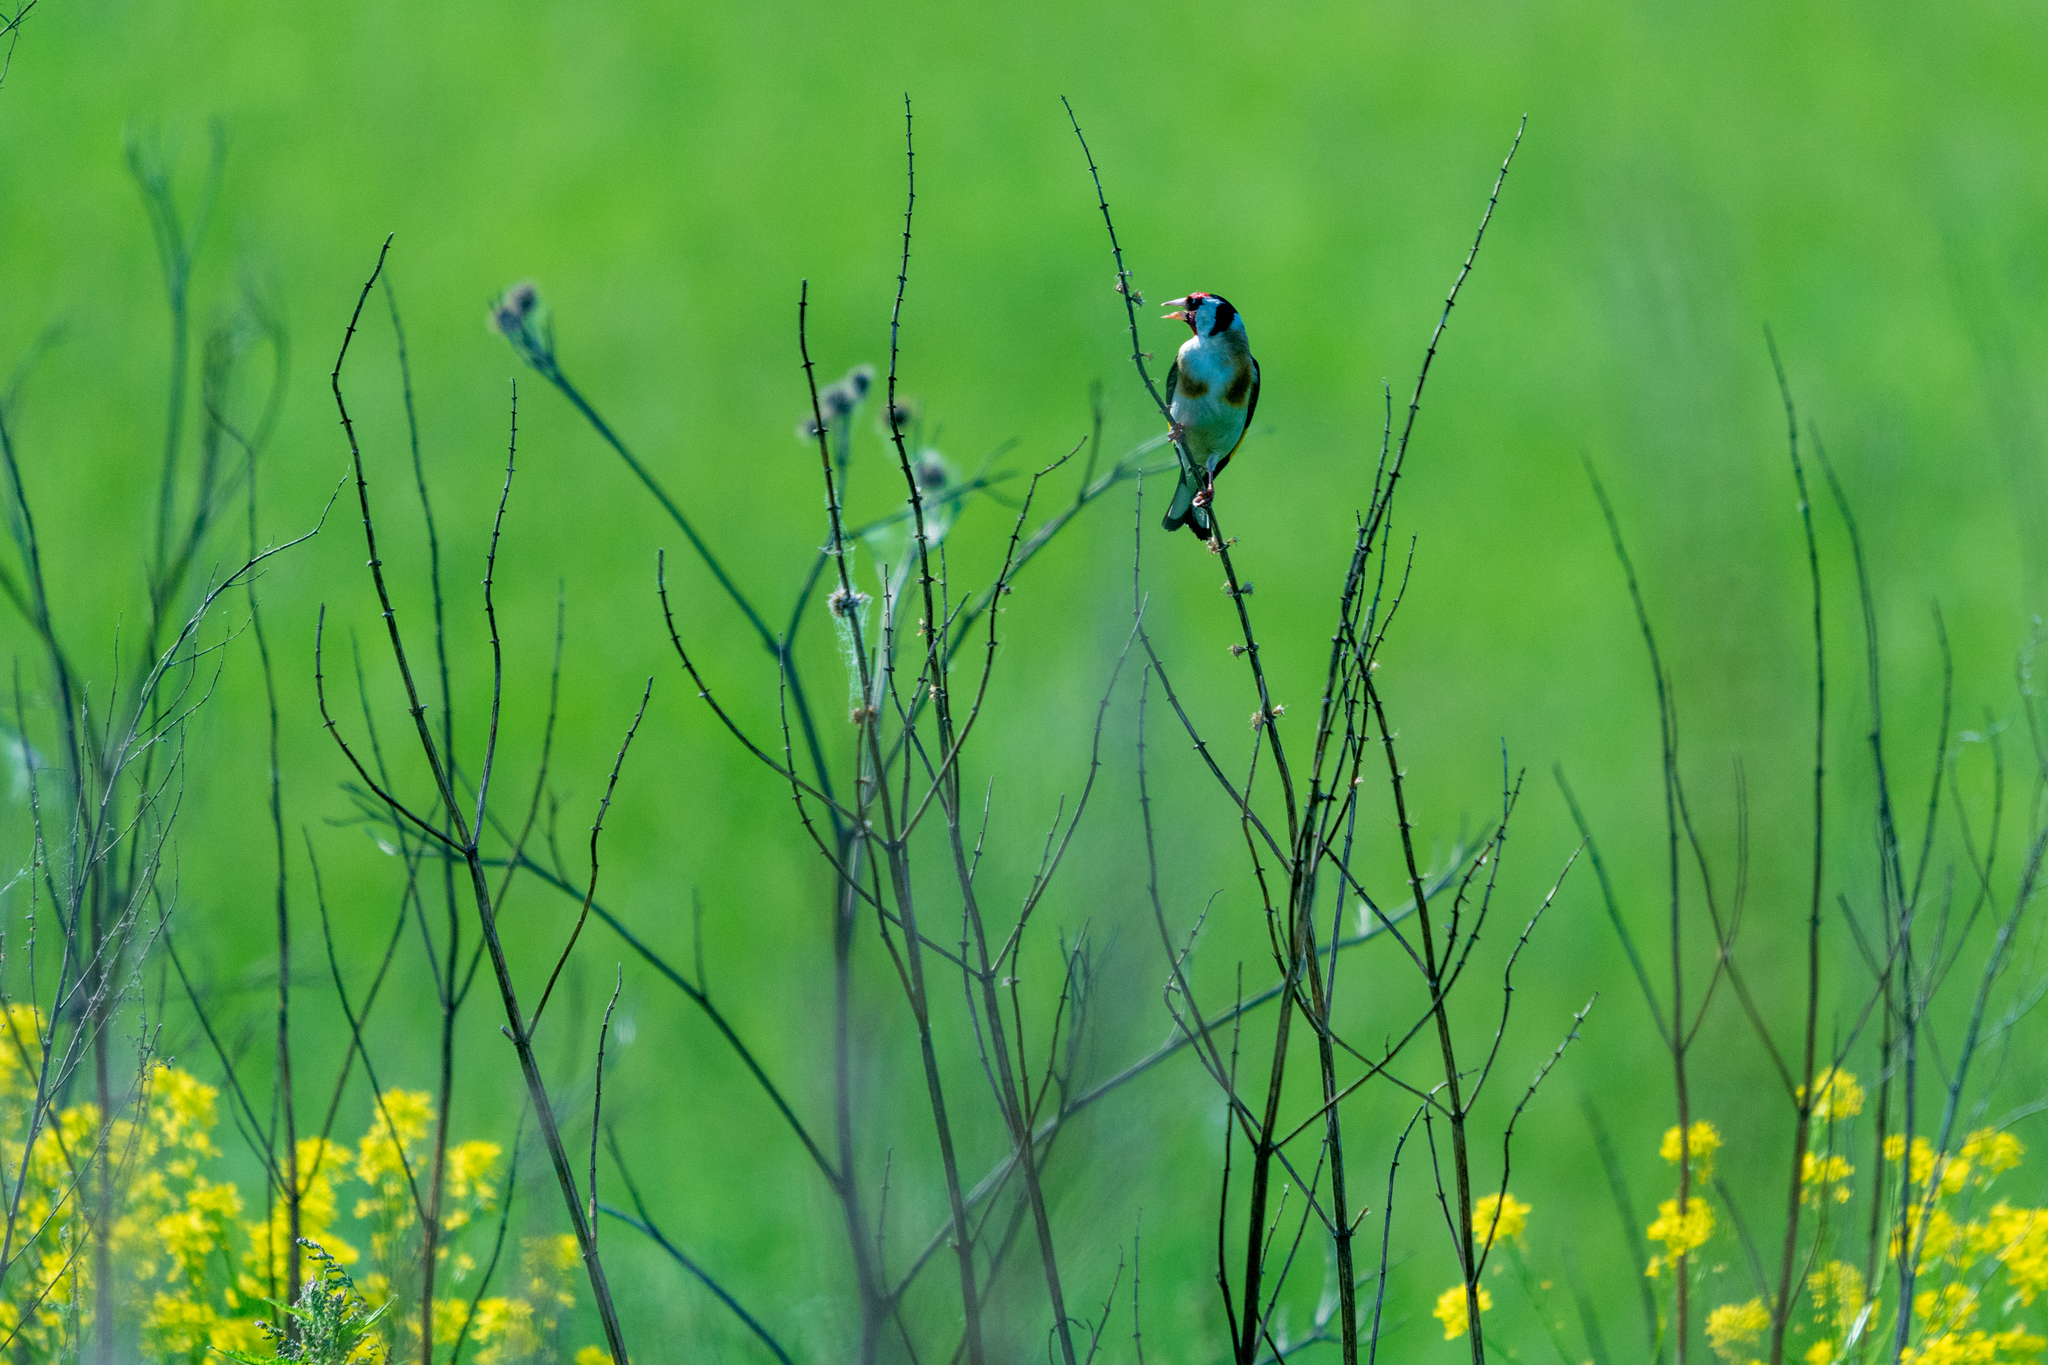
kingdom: Animalia
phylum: Chordata
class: Aves
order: Passeriformes
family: Fringillidae
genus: Carduelis
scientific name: Carduelis carduelis
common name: European goldfinch
